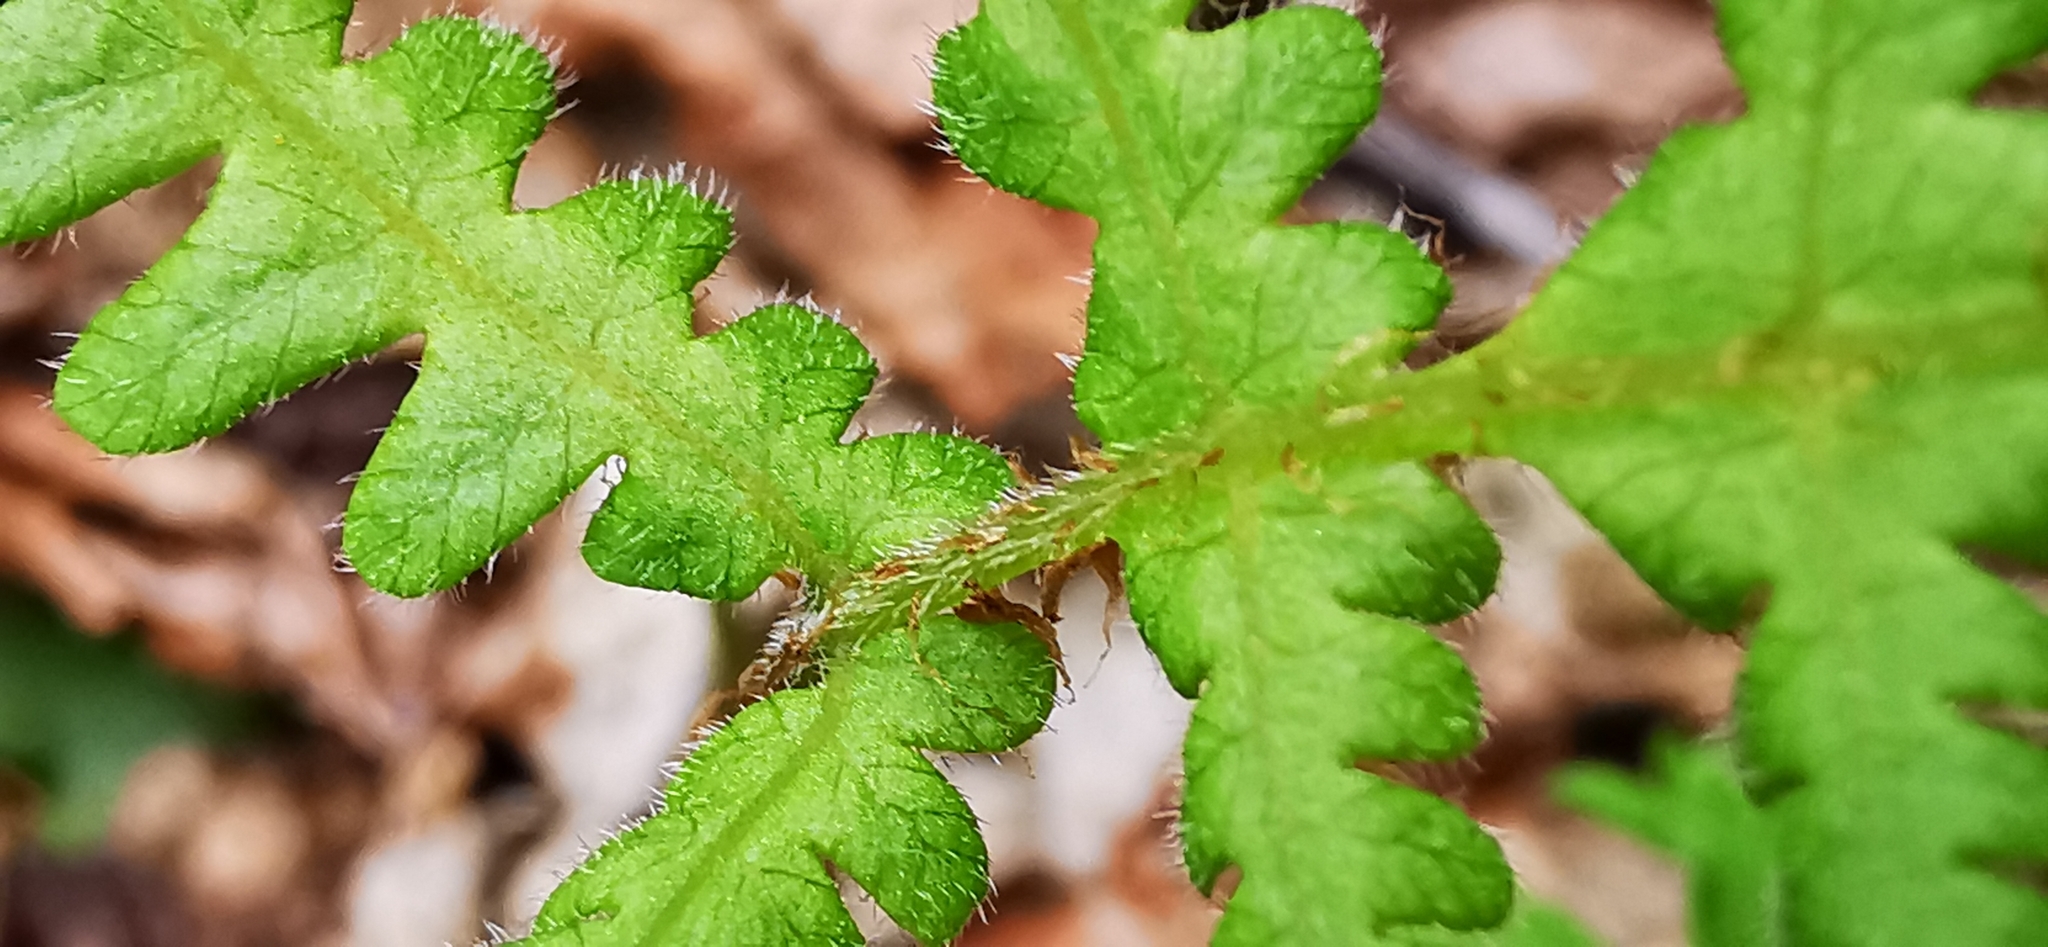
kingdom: Plantae
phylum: Tracheophyta
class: Polypodiopsida
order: Polypodiales
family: Thelypteridaceae
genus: Phegopteris
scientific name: Phegopteris connectilis
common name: Beech fern
